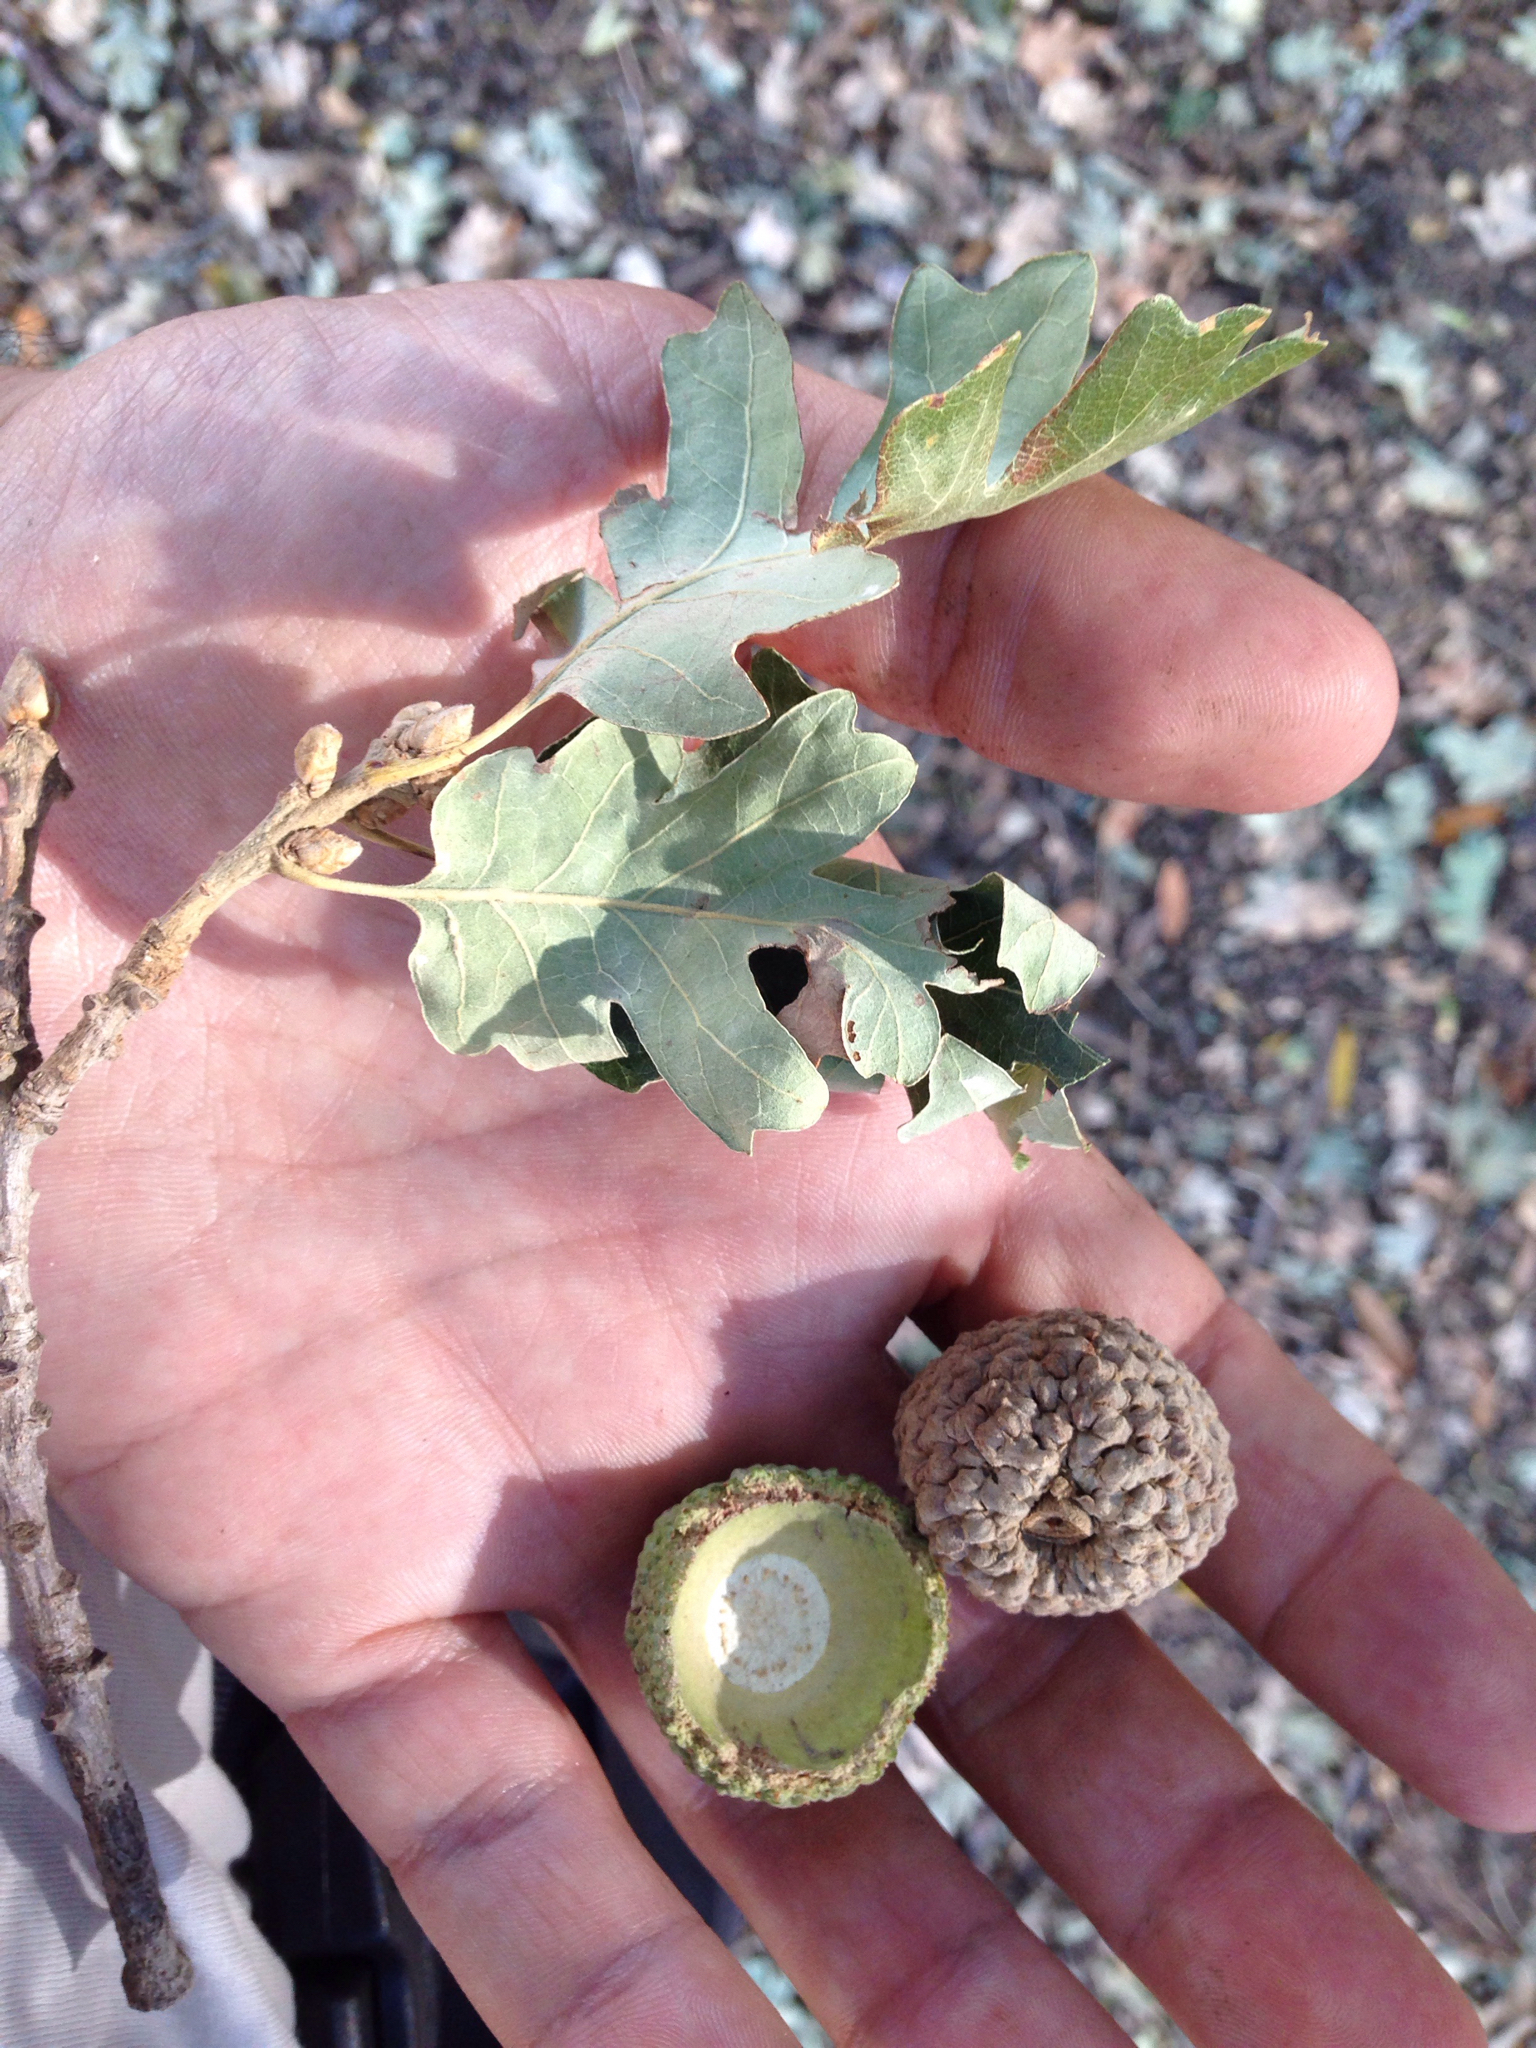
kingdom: Plantae
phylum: Tracheophyta
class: Magnoliopsida
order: Fagales
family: Fagaceae
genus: Quercus
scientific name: Quercus lobata
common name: Valley oak
